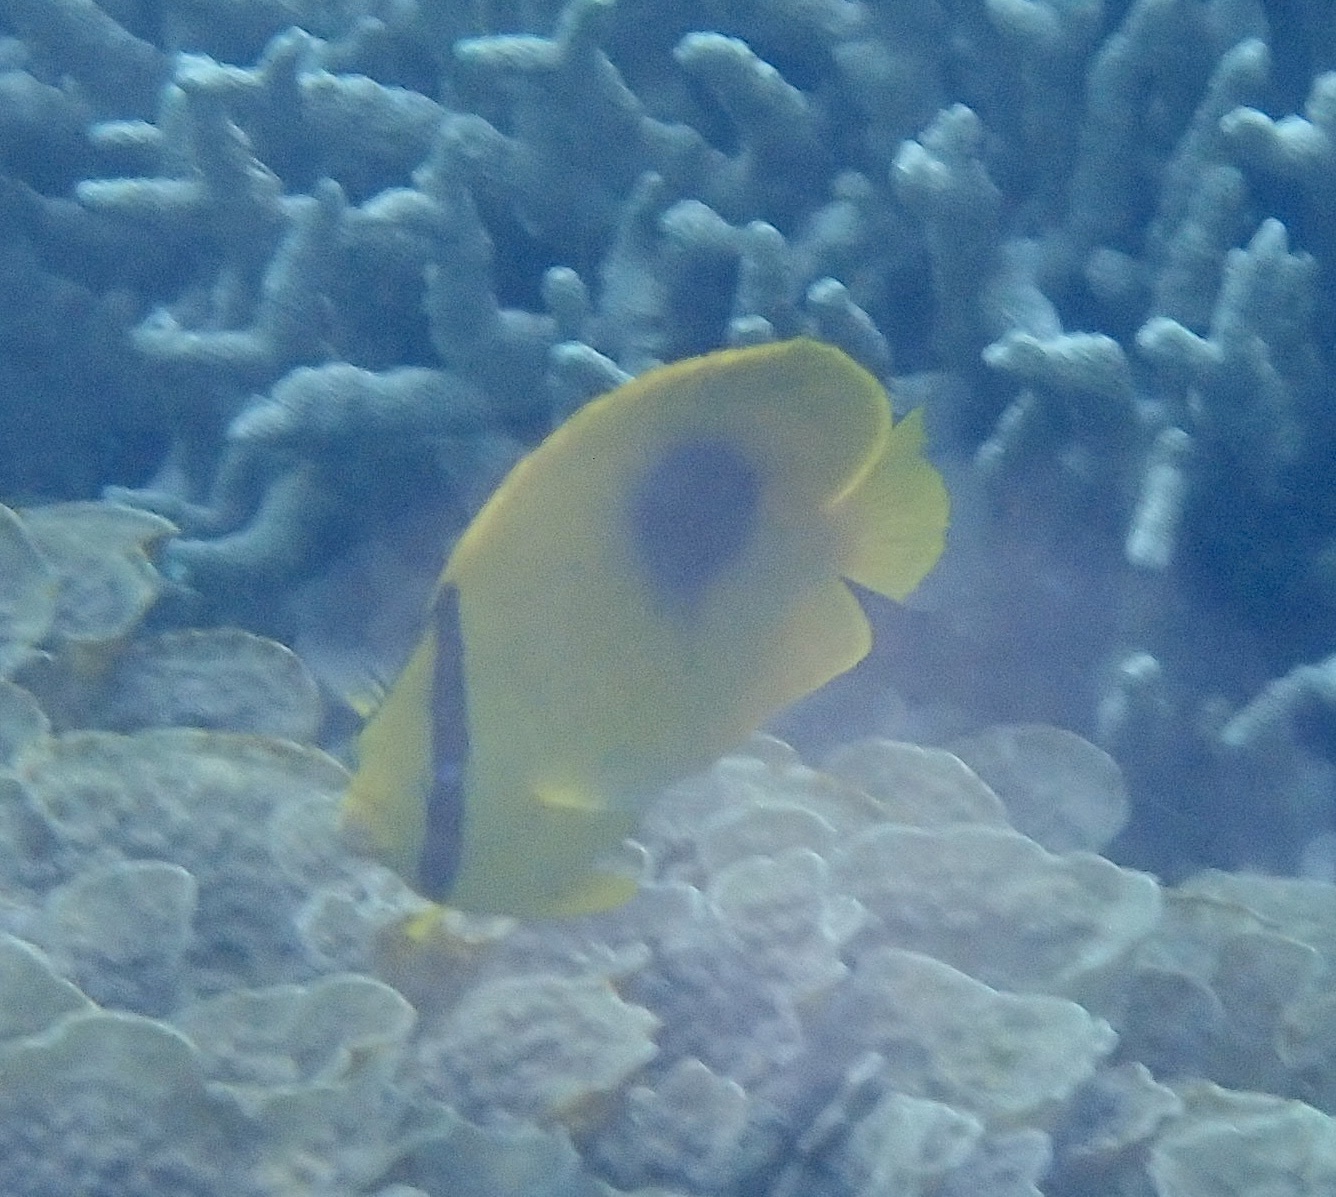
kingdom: Animalia
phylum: Chordata
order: Perciformes
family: Chaetodontidae
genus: Chaetodon
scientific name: Chaetodon speculum
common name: Mirror butterflyfish
